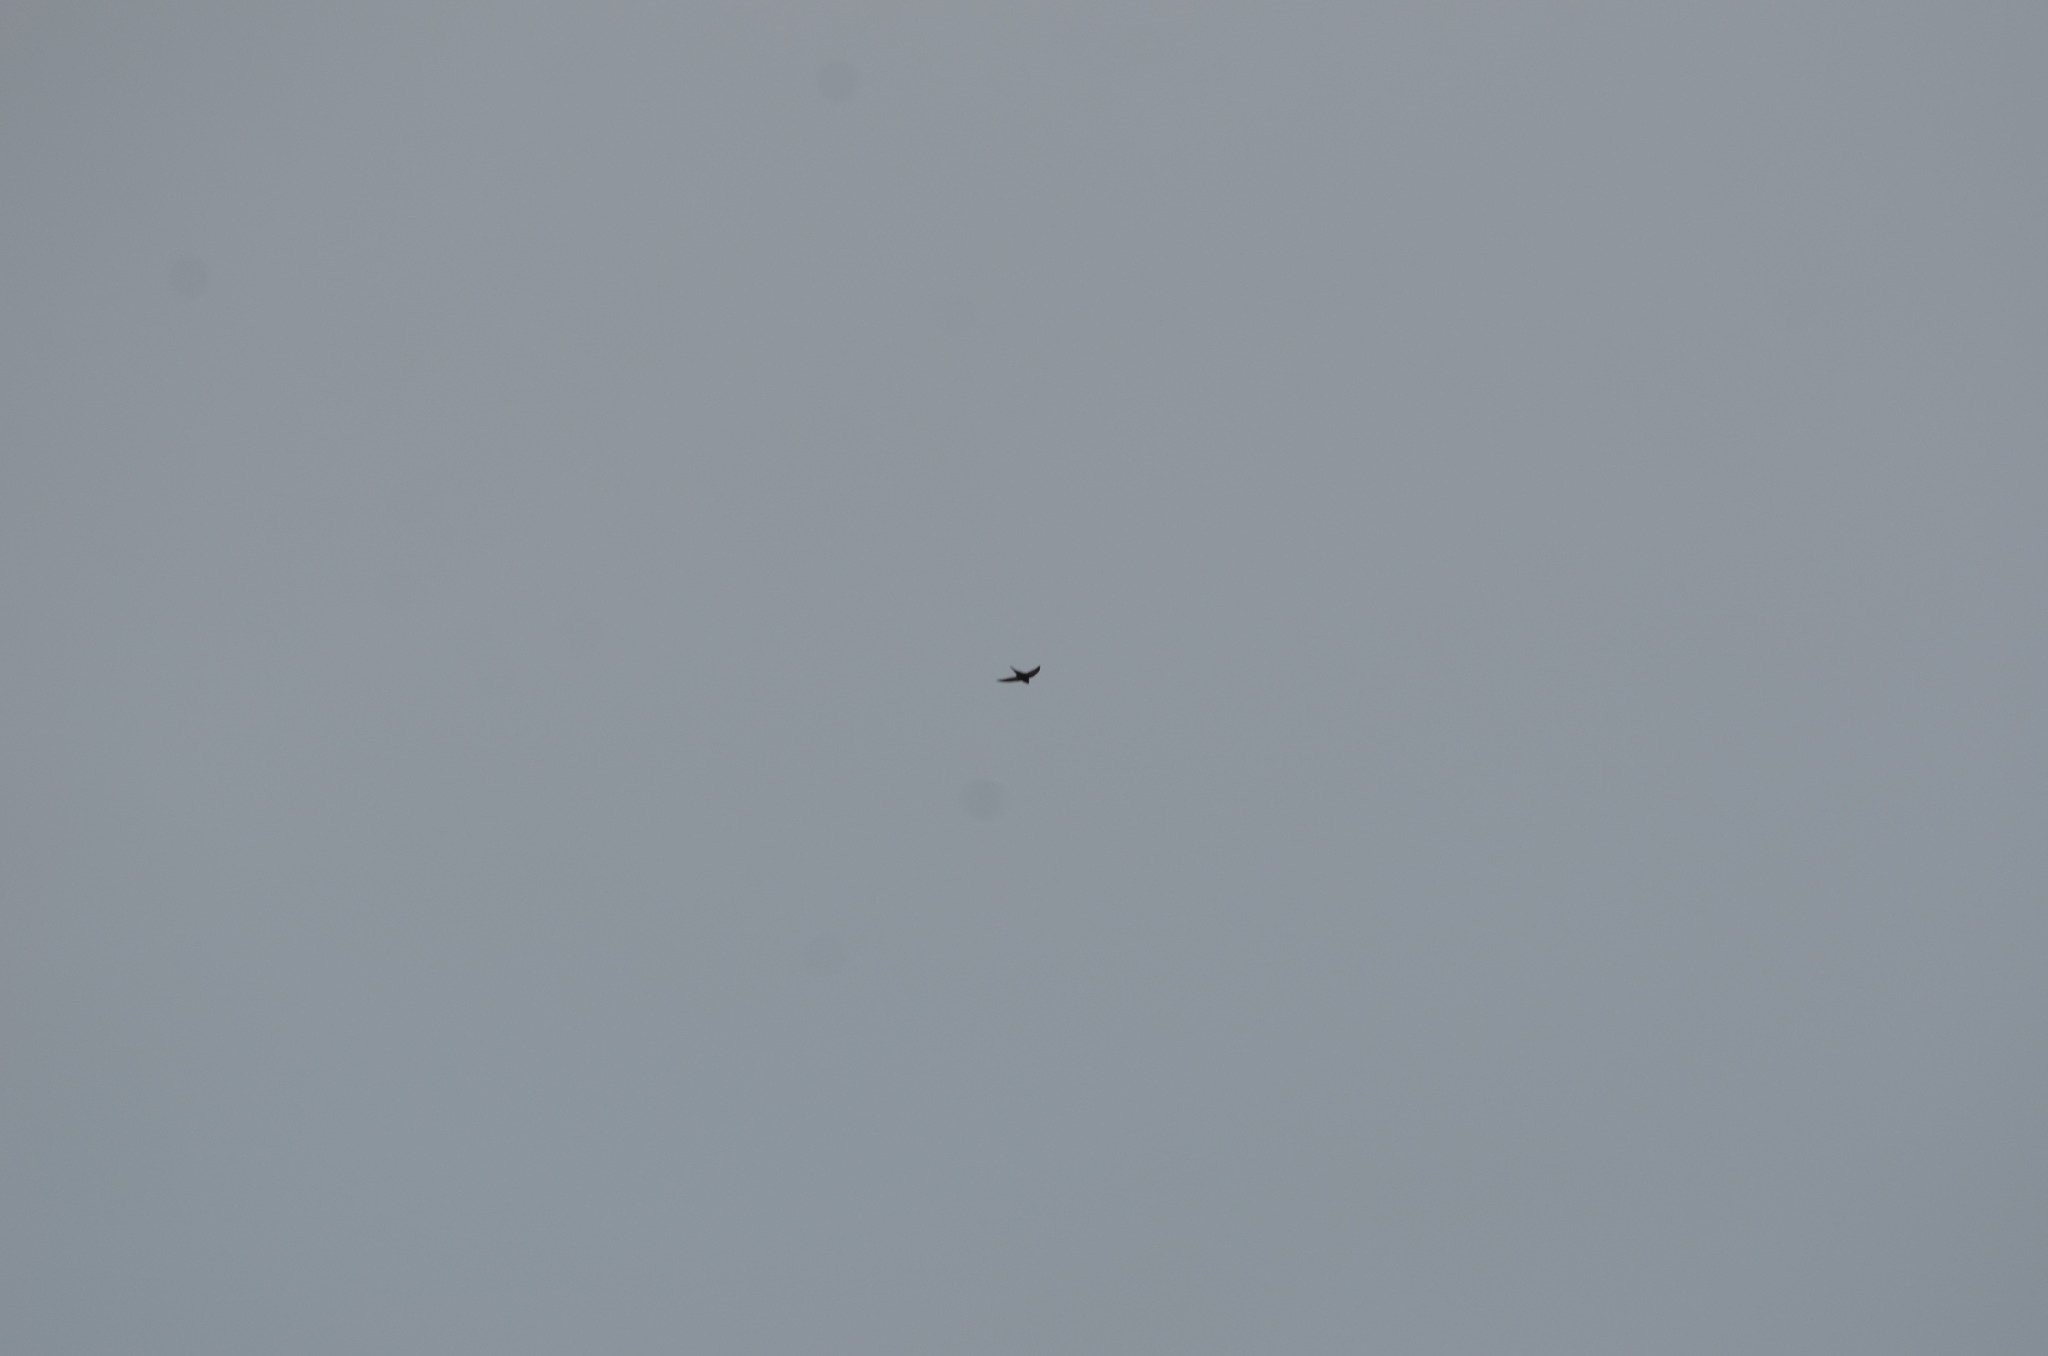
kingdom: Animalia
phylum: Chordata
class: Aves
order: Passeriformes
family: Hirundinidae
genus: Hirundo
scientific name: Hirundo rustica
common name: Barn swallow
